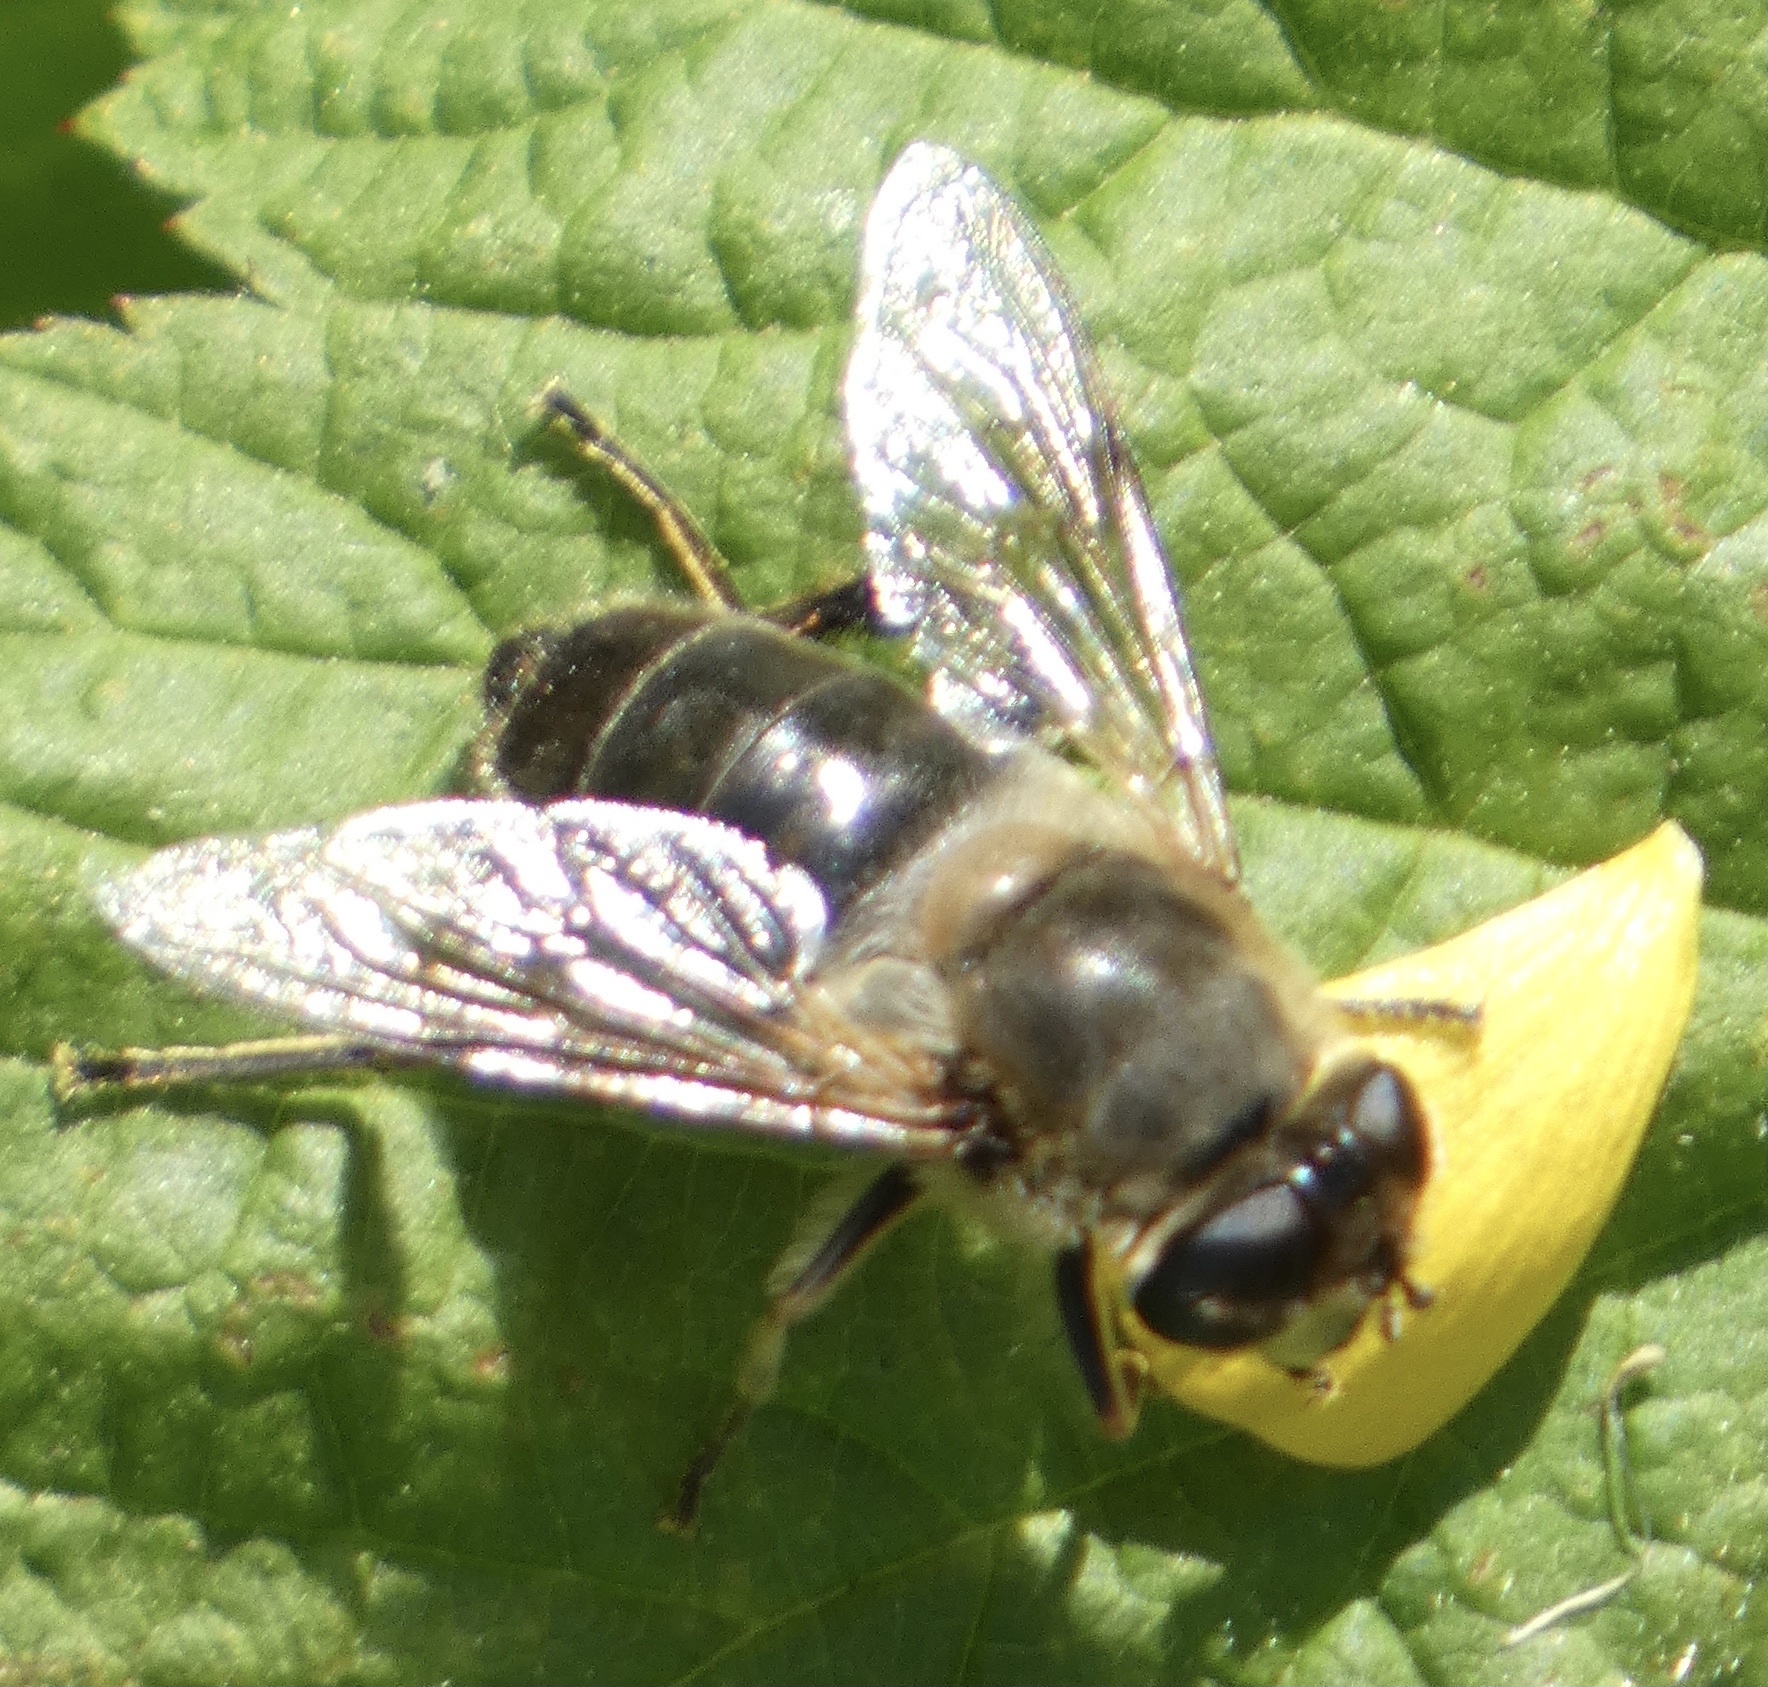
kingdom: Animalia
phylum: Arthropoda
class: Insecta
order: Diptera
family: Syrphidae
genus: Eristalis
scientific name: Eristalis tenax
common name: Drone fly
